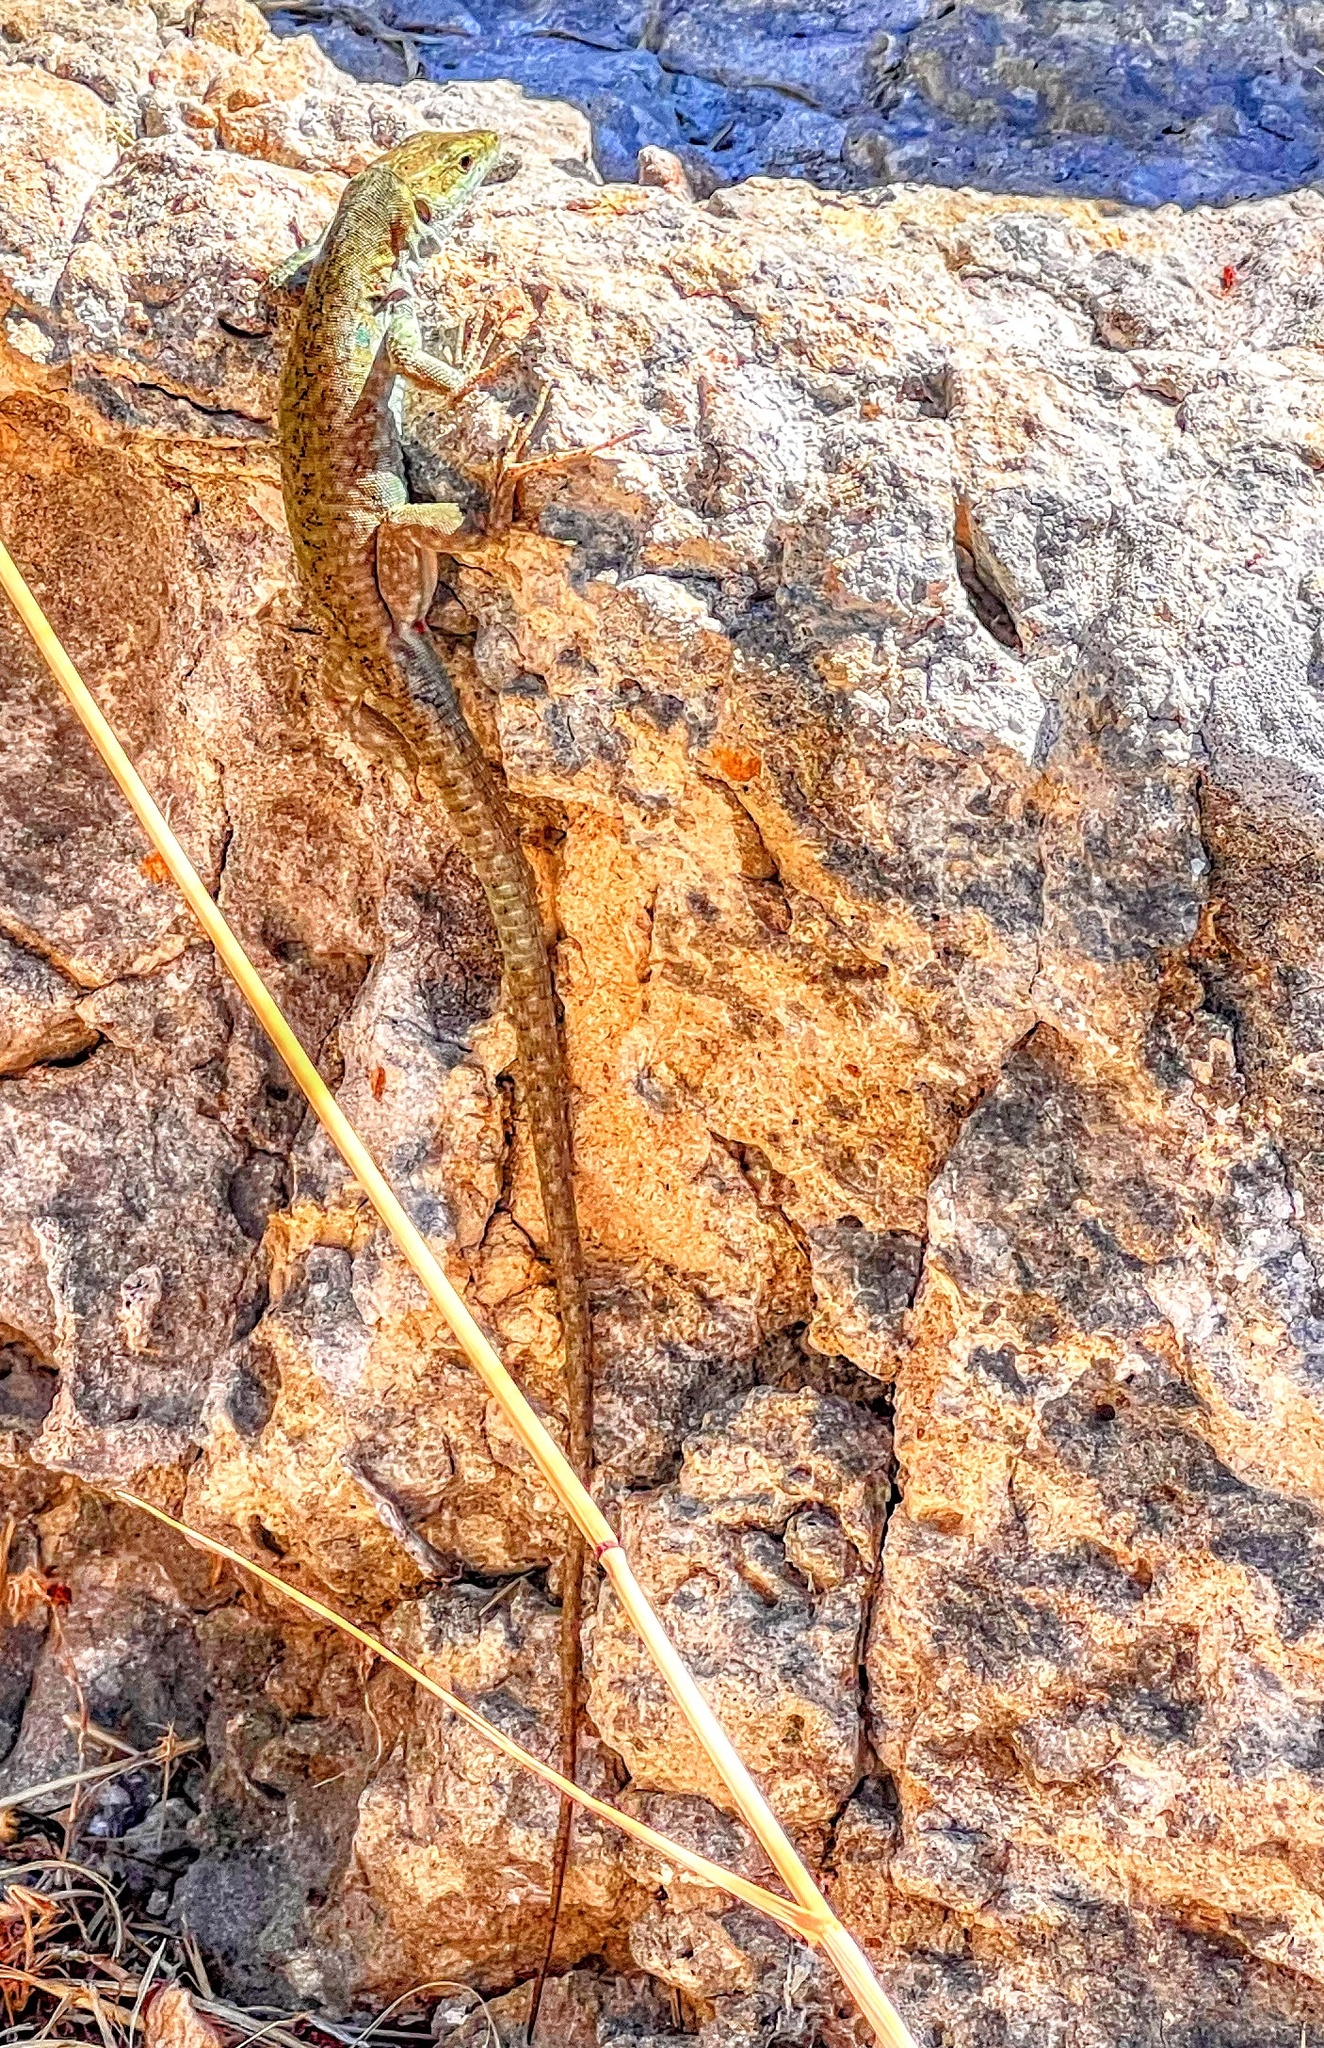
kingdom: Animalia
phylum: Chordata
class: Squamata
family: Lacertidae
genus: Podarcis
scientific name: Podarcis siculus
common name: Italian wall lizard
